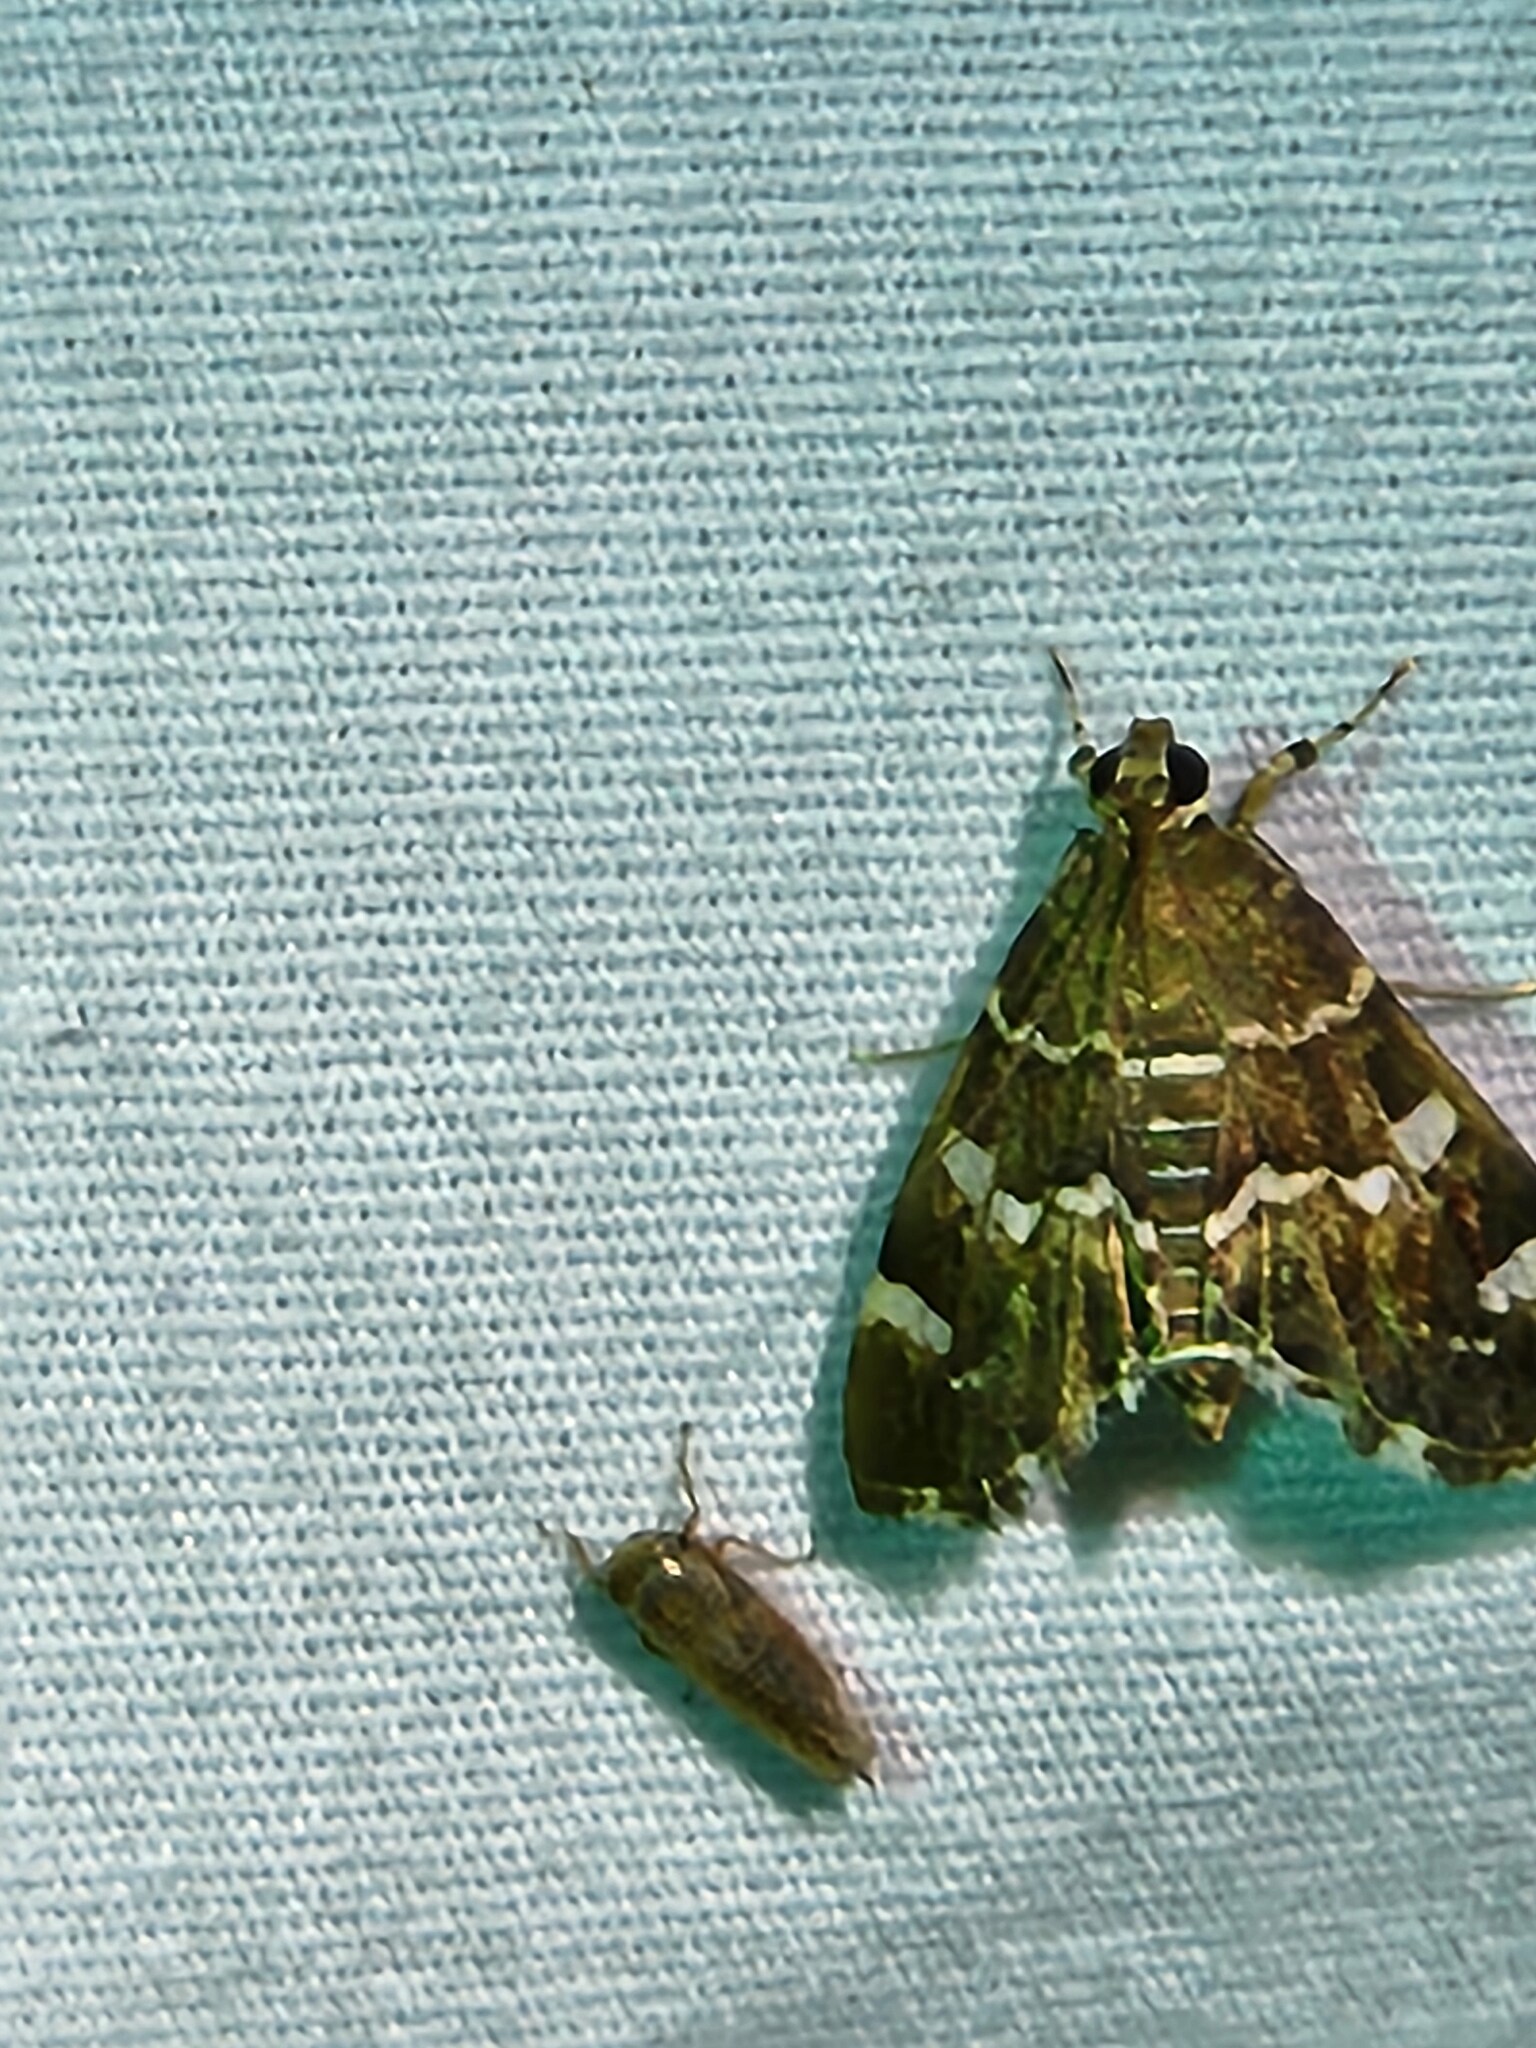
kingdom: Animalia
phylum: Arthropoda
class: Insecta
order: Lepidoptera
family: Crambidae
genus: Hymenia
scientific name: Hymenia perspectalis
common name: Spotted beet webworm
